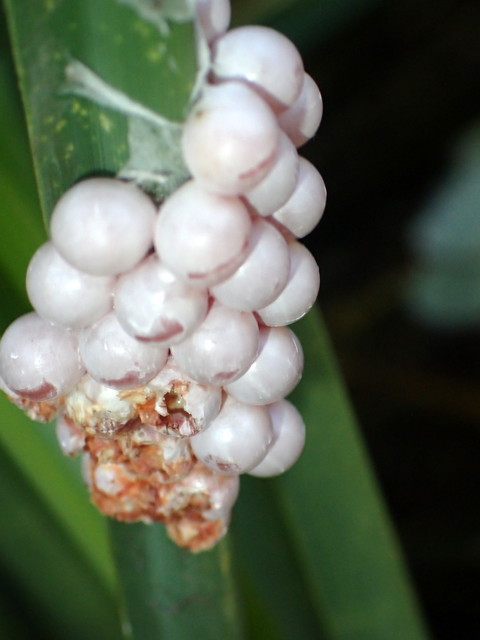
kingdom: Animalia
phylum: Mollusca
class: Gastropoda
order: Architaenioglossa
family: Ampullariidae
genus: Pomacea
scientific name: Pomacea paludosa
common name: Florida applesnail
